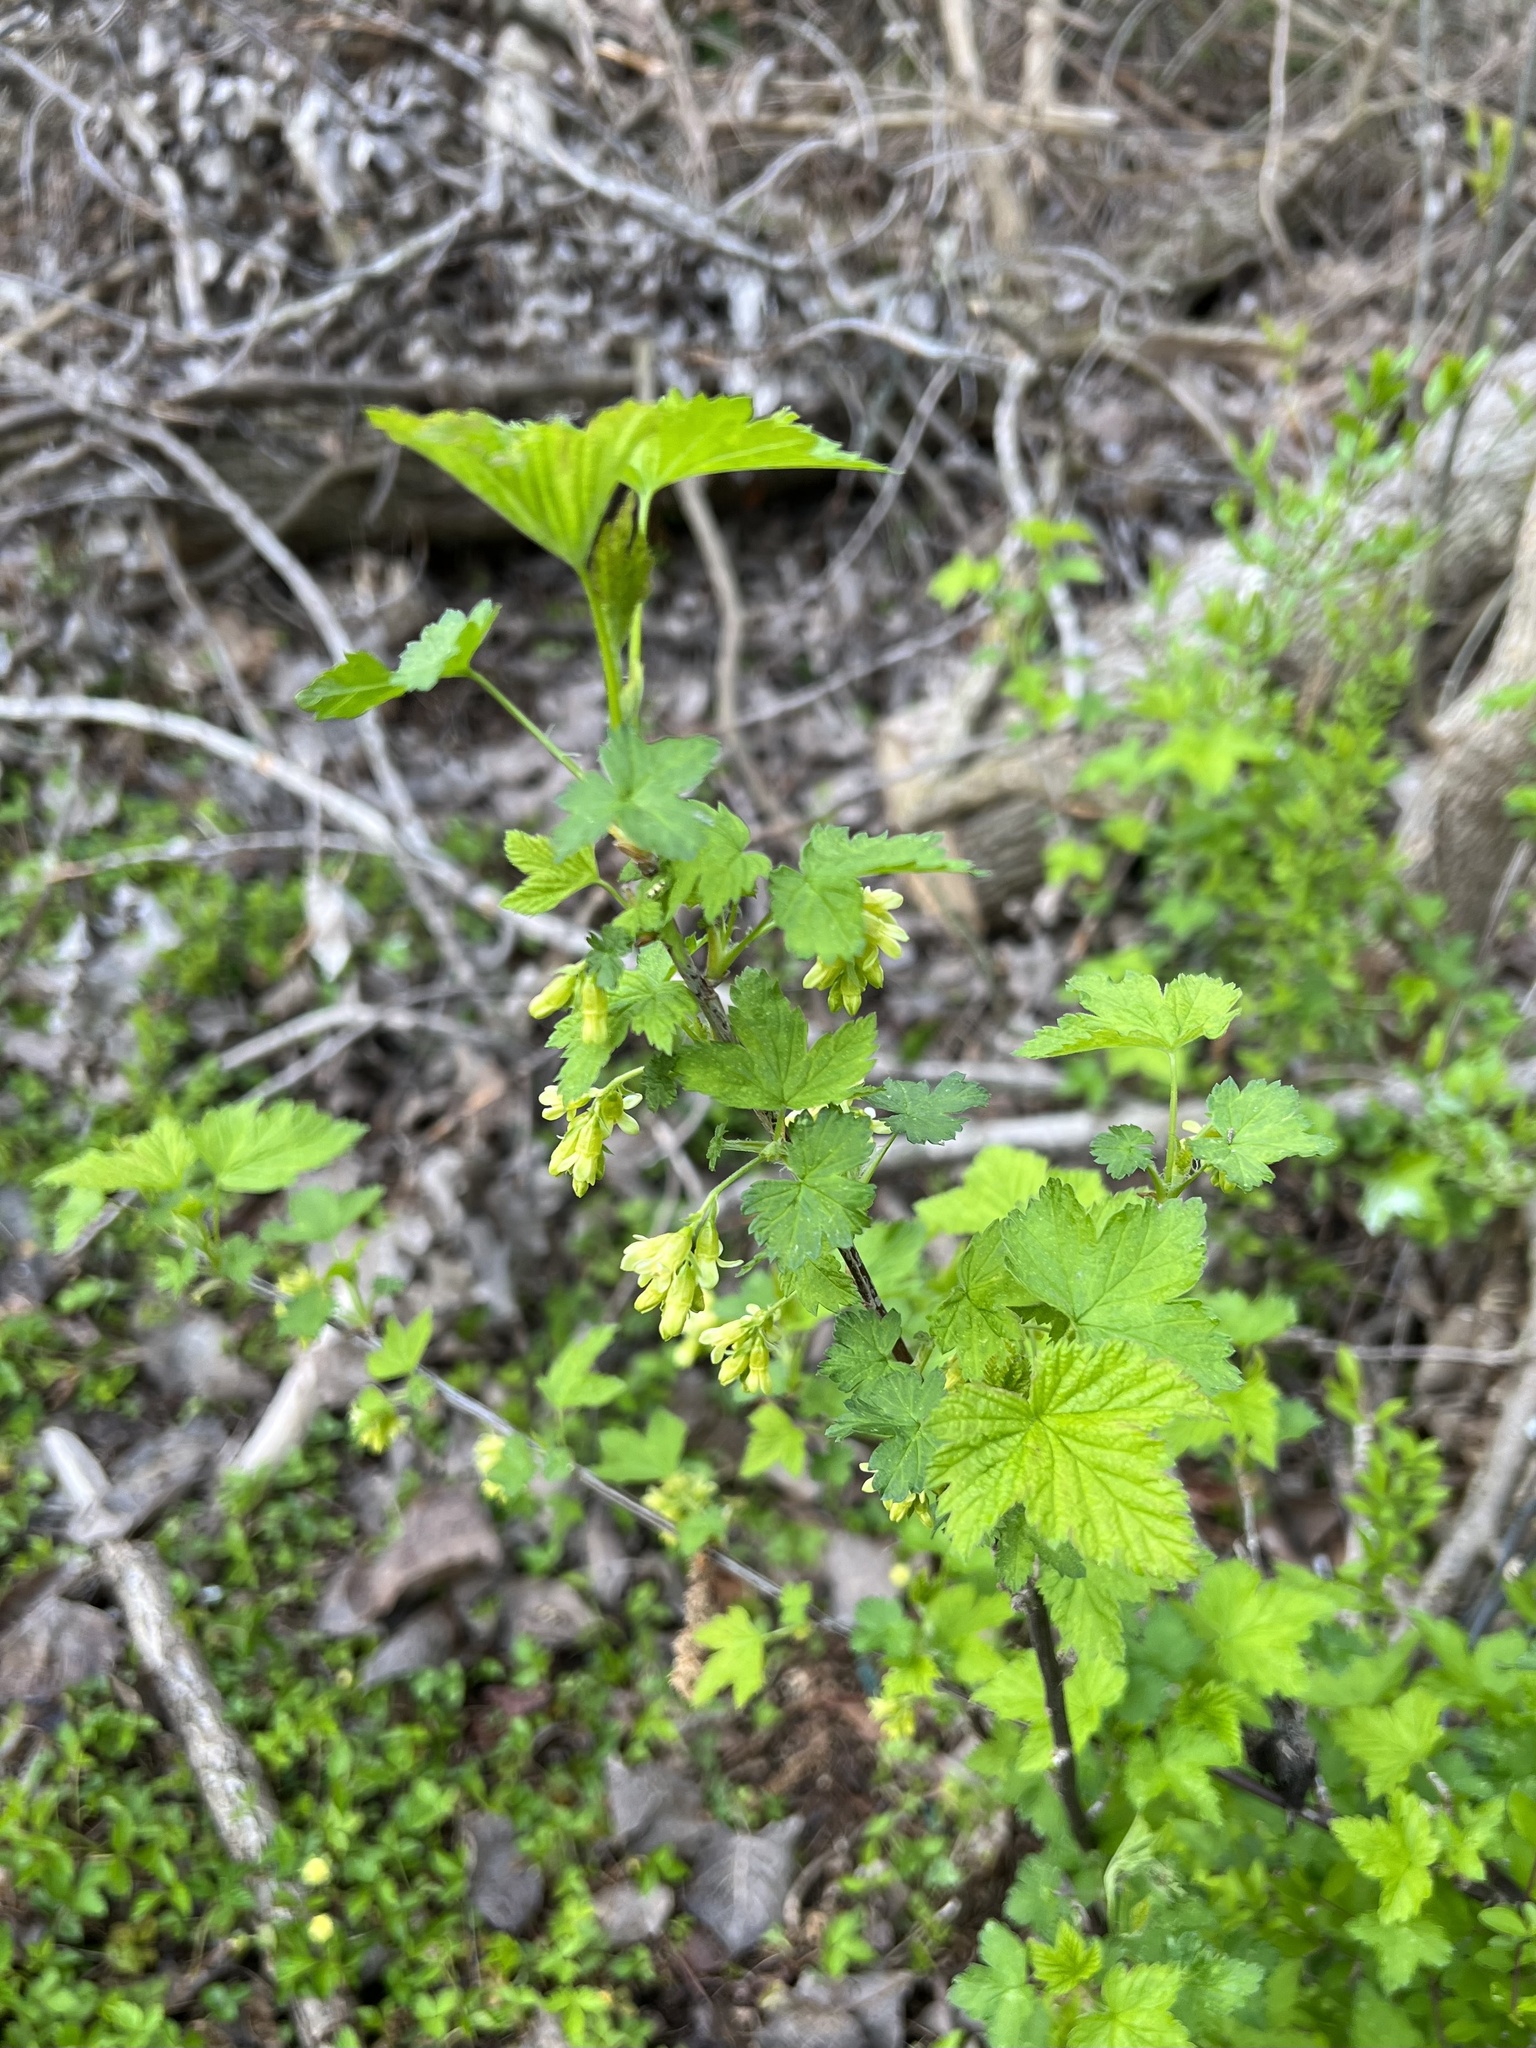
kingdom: Plantae
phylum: Tracheophyta
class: Magnoliopsida
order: Saxifragales
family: Grossulariaceae
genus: Ribes
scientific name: Ribes americanum
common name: American black currant
